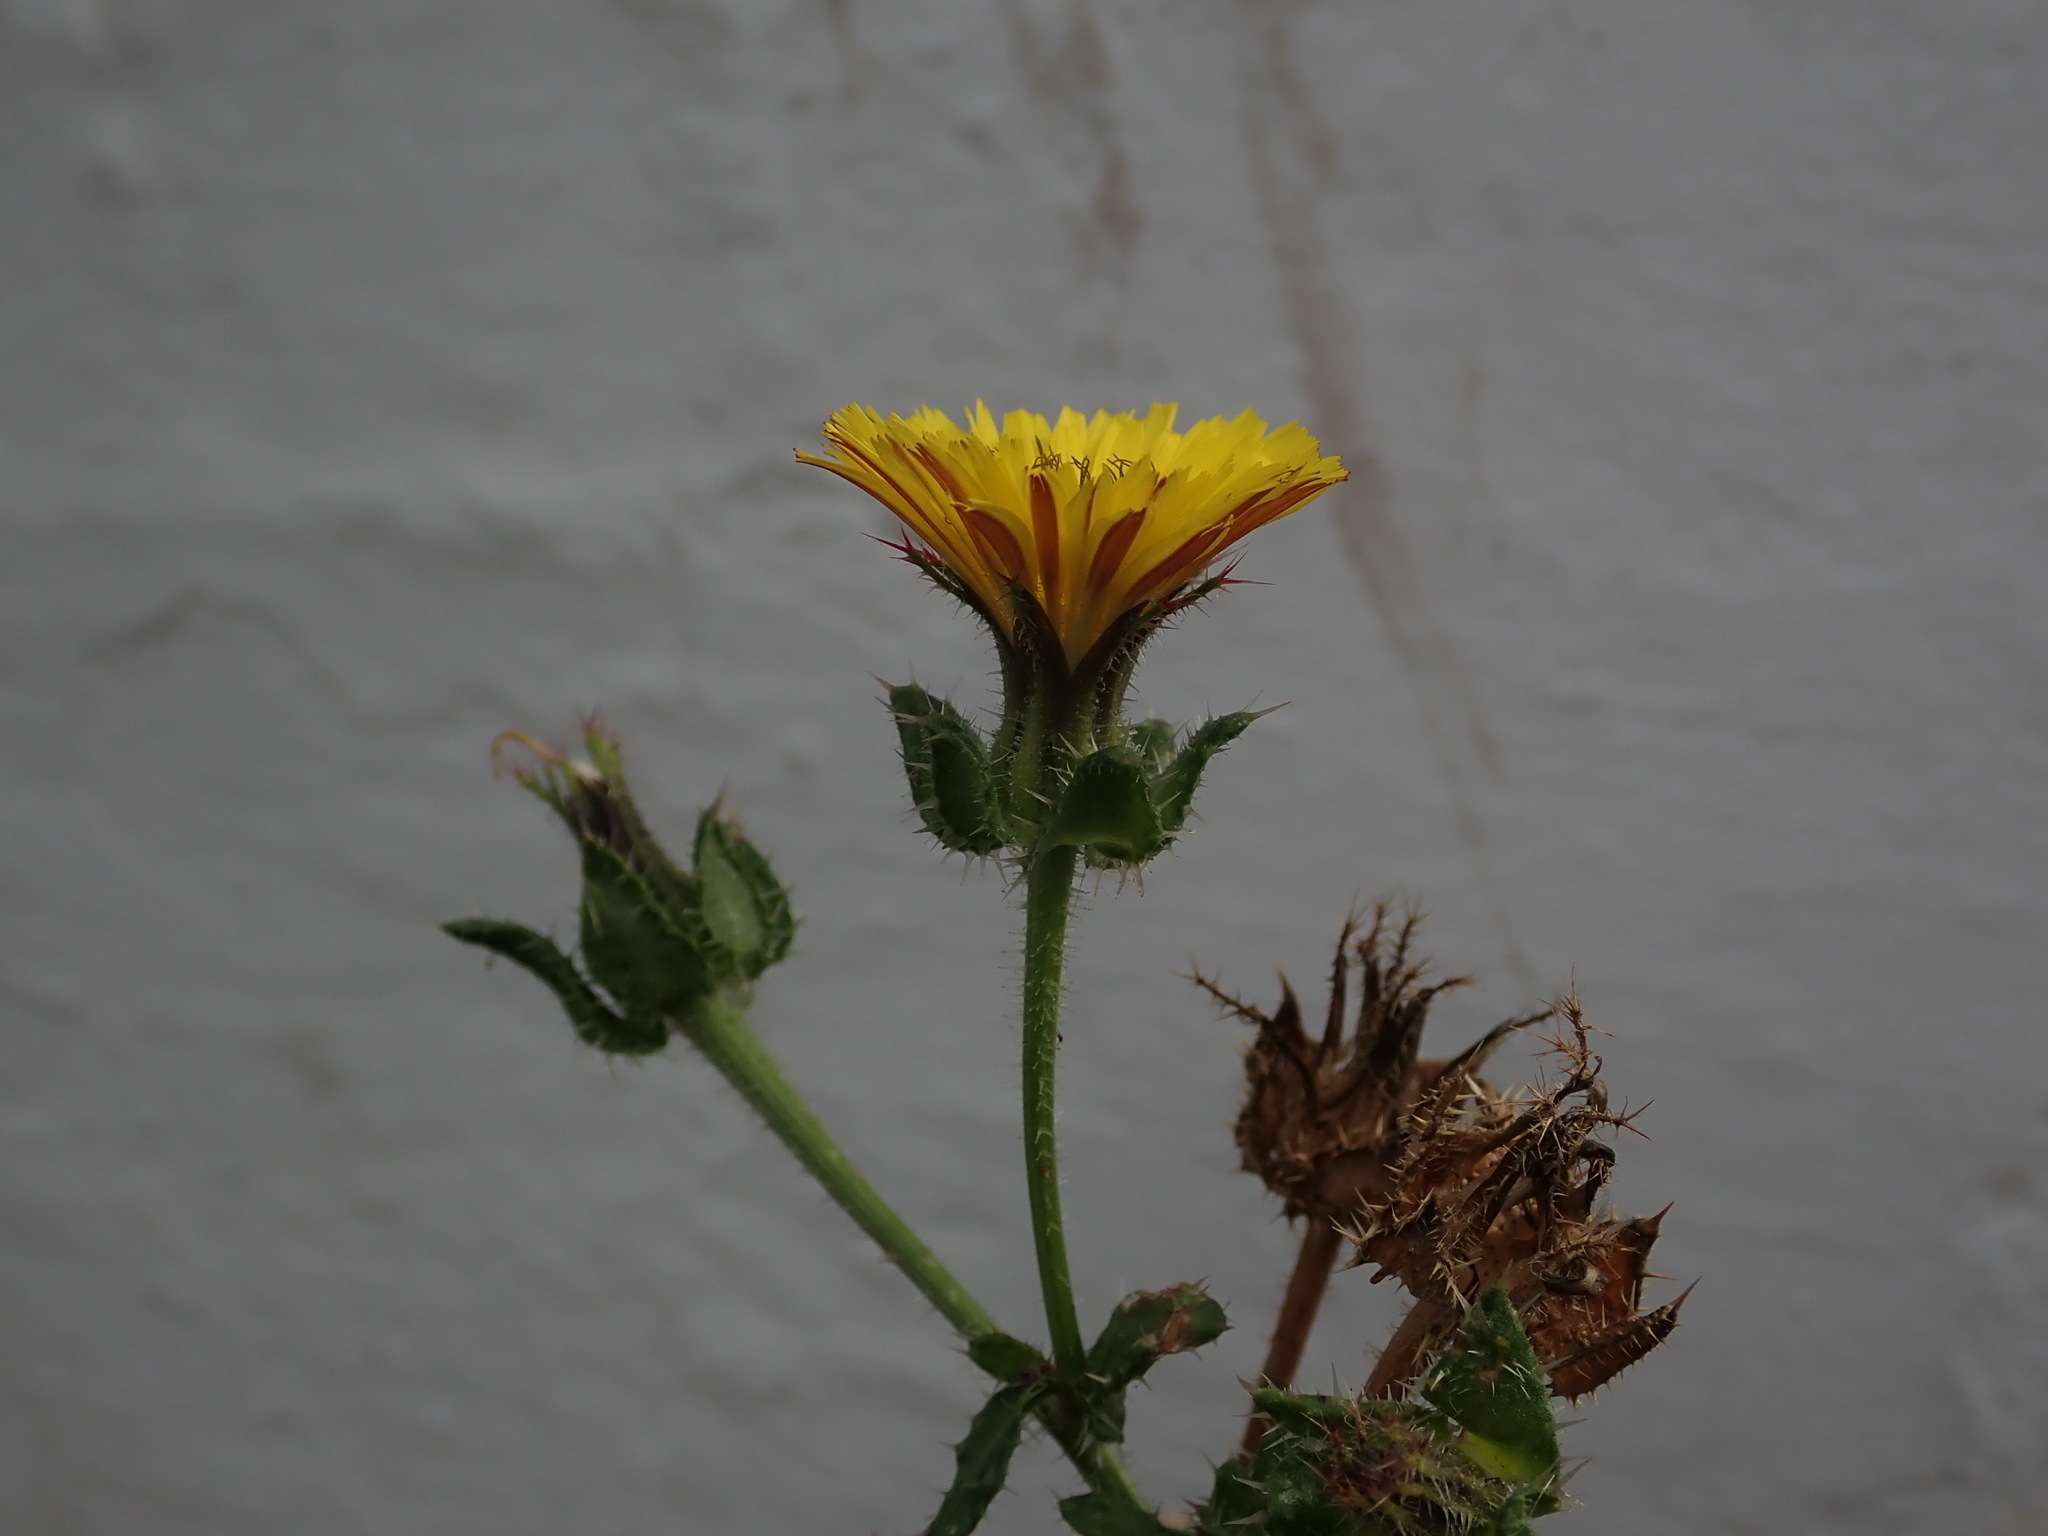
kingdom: Plantae
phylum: Tracheophyta
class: Magnoliopsida
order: Asterales
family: Asteraceae
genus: Helminthotheca
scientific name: Helminthotheca echioides
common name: Ox-tongue
